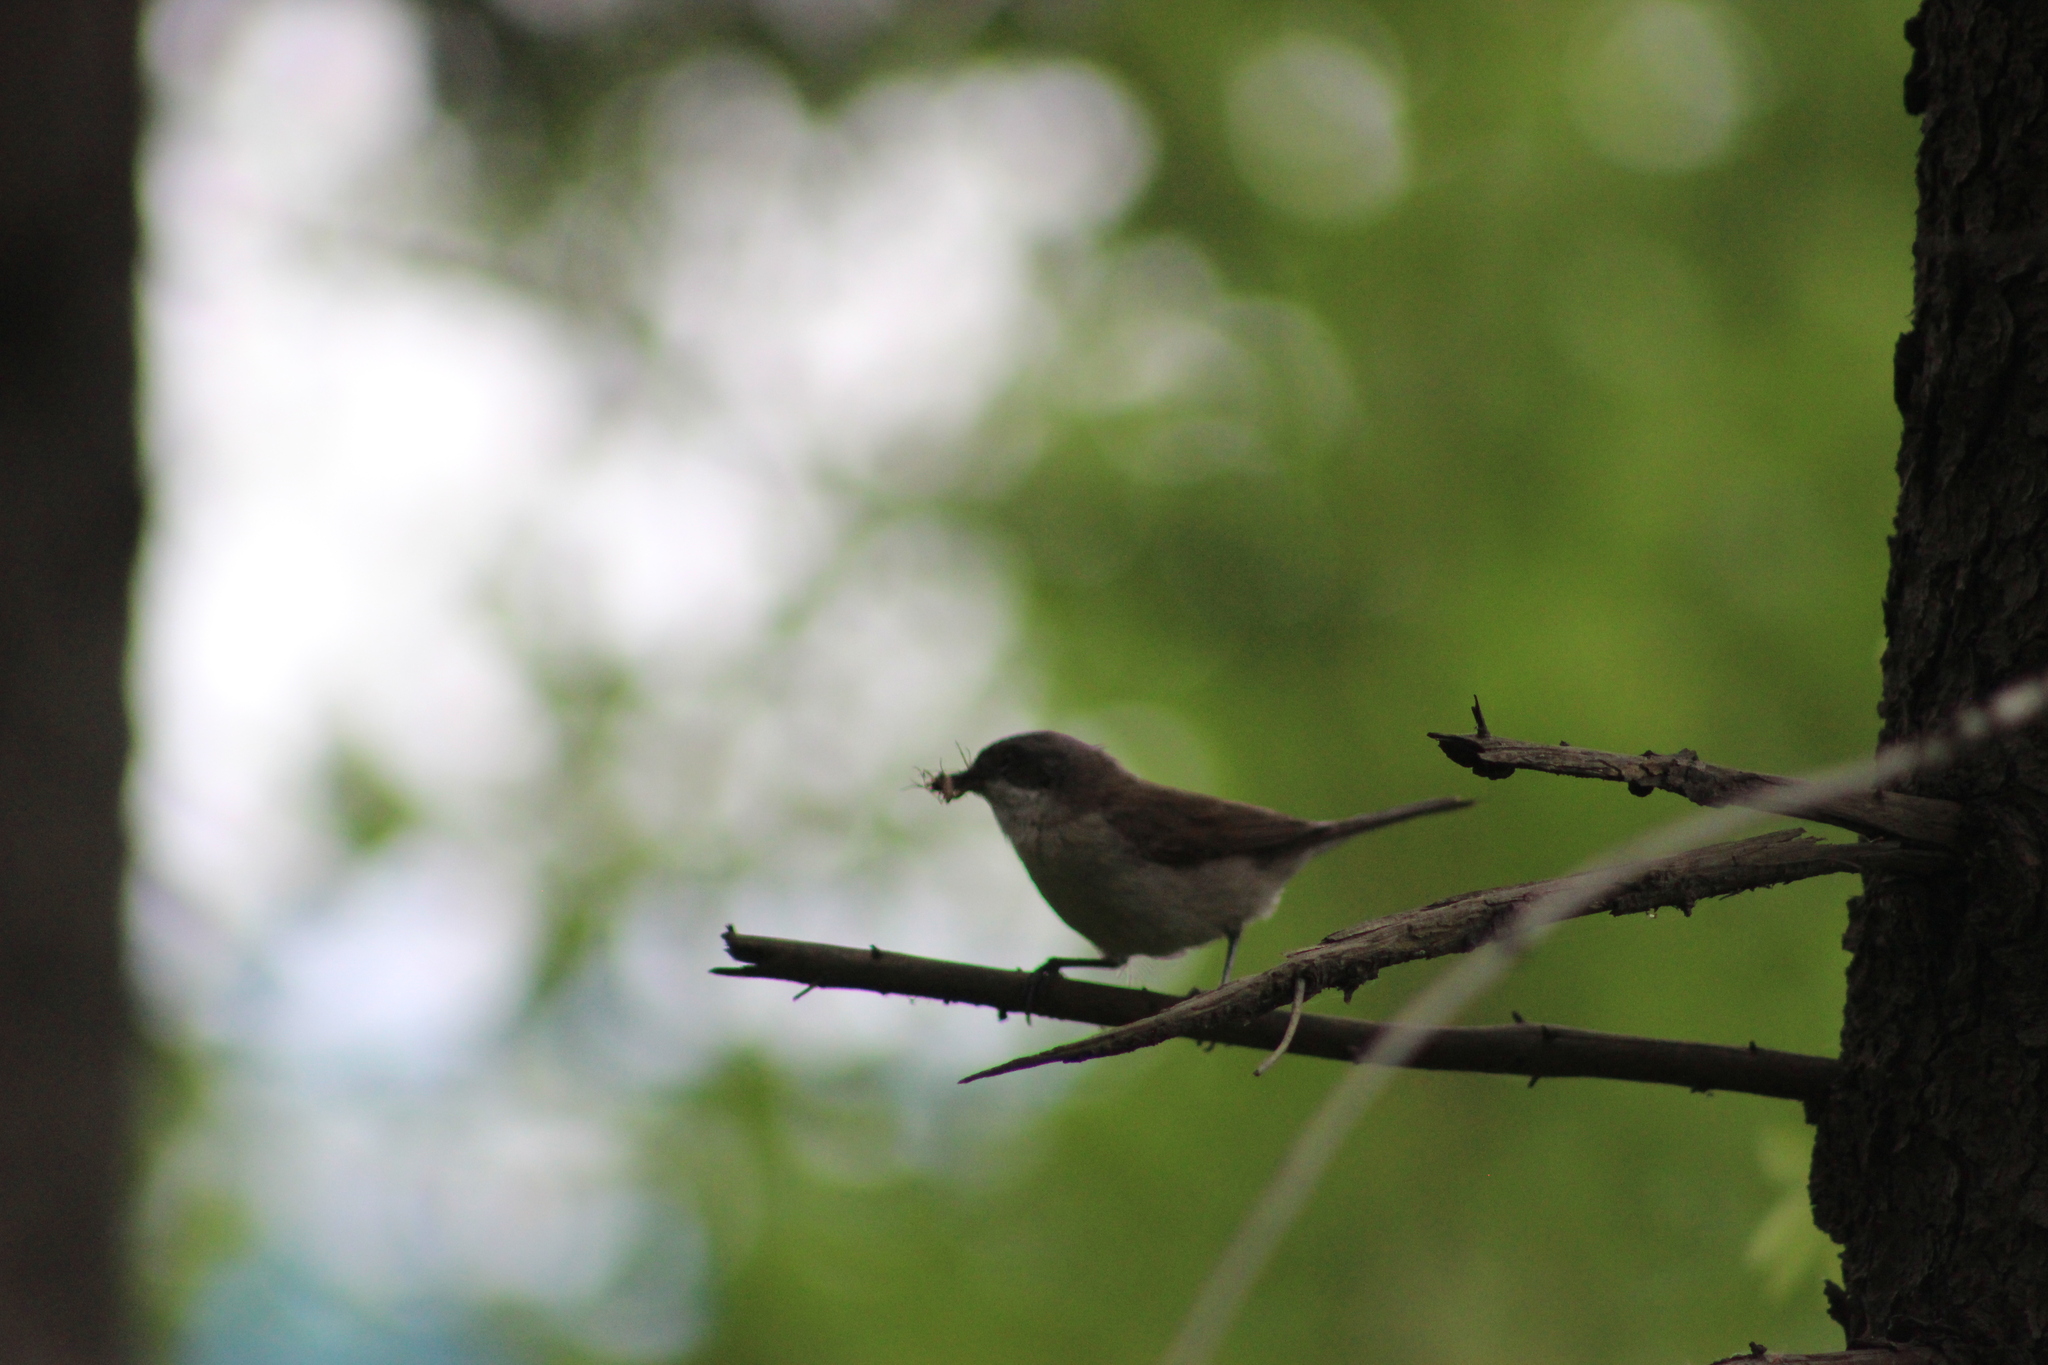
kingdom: Animalia
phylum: Chordata
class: Aves
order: Passeriformes
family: Sylviidae
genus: Sylvia
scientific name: Sylvia curruca
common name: Lesser whitethroat
